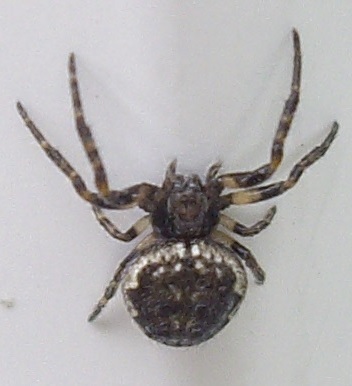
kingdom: Animalia
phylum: Arthropoda
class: Arachnida
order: Araneae
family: Araneidae
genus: Nuctenea
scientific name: Nuctenea umbratica
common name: Toad spider
